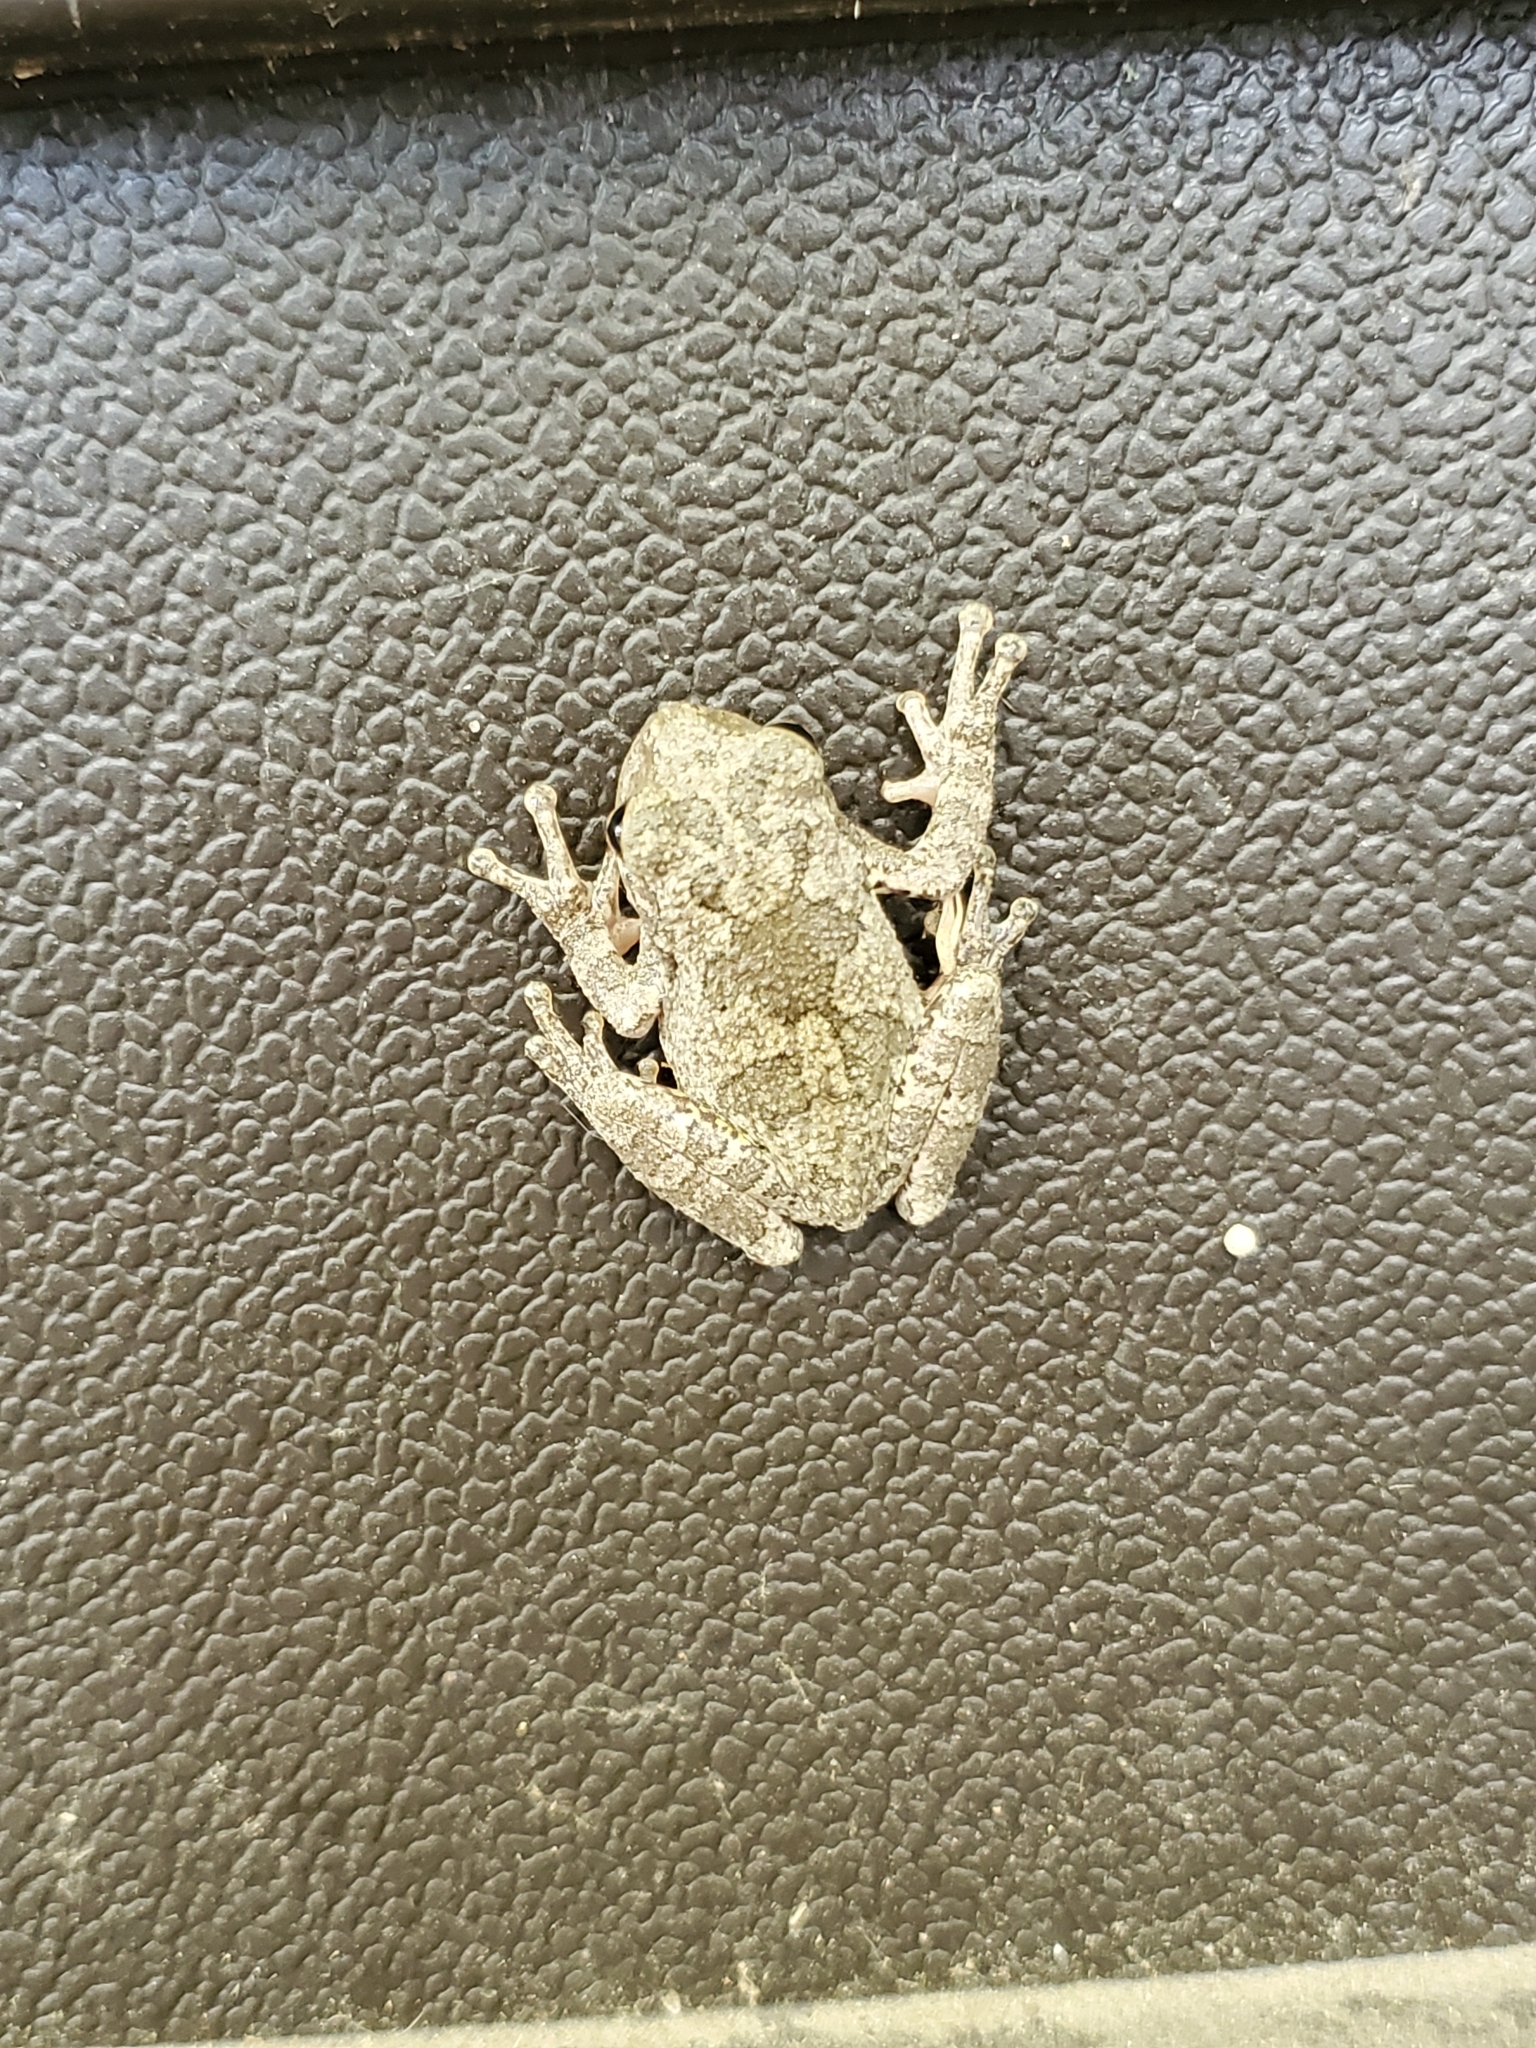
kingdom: Animalia
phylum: Chordata
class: Amphibia
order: Anura
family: Hylidae
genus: Dryophytes
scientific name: Dryophytes chrysoscelis
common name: Cope's gray treefrog
